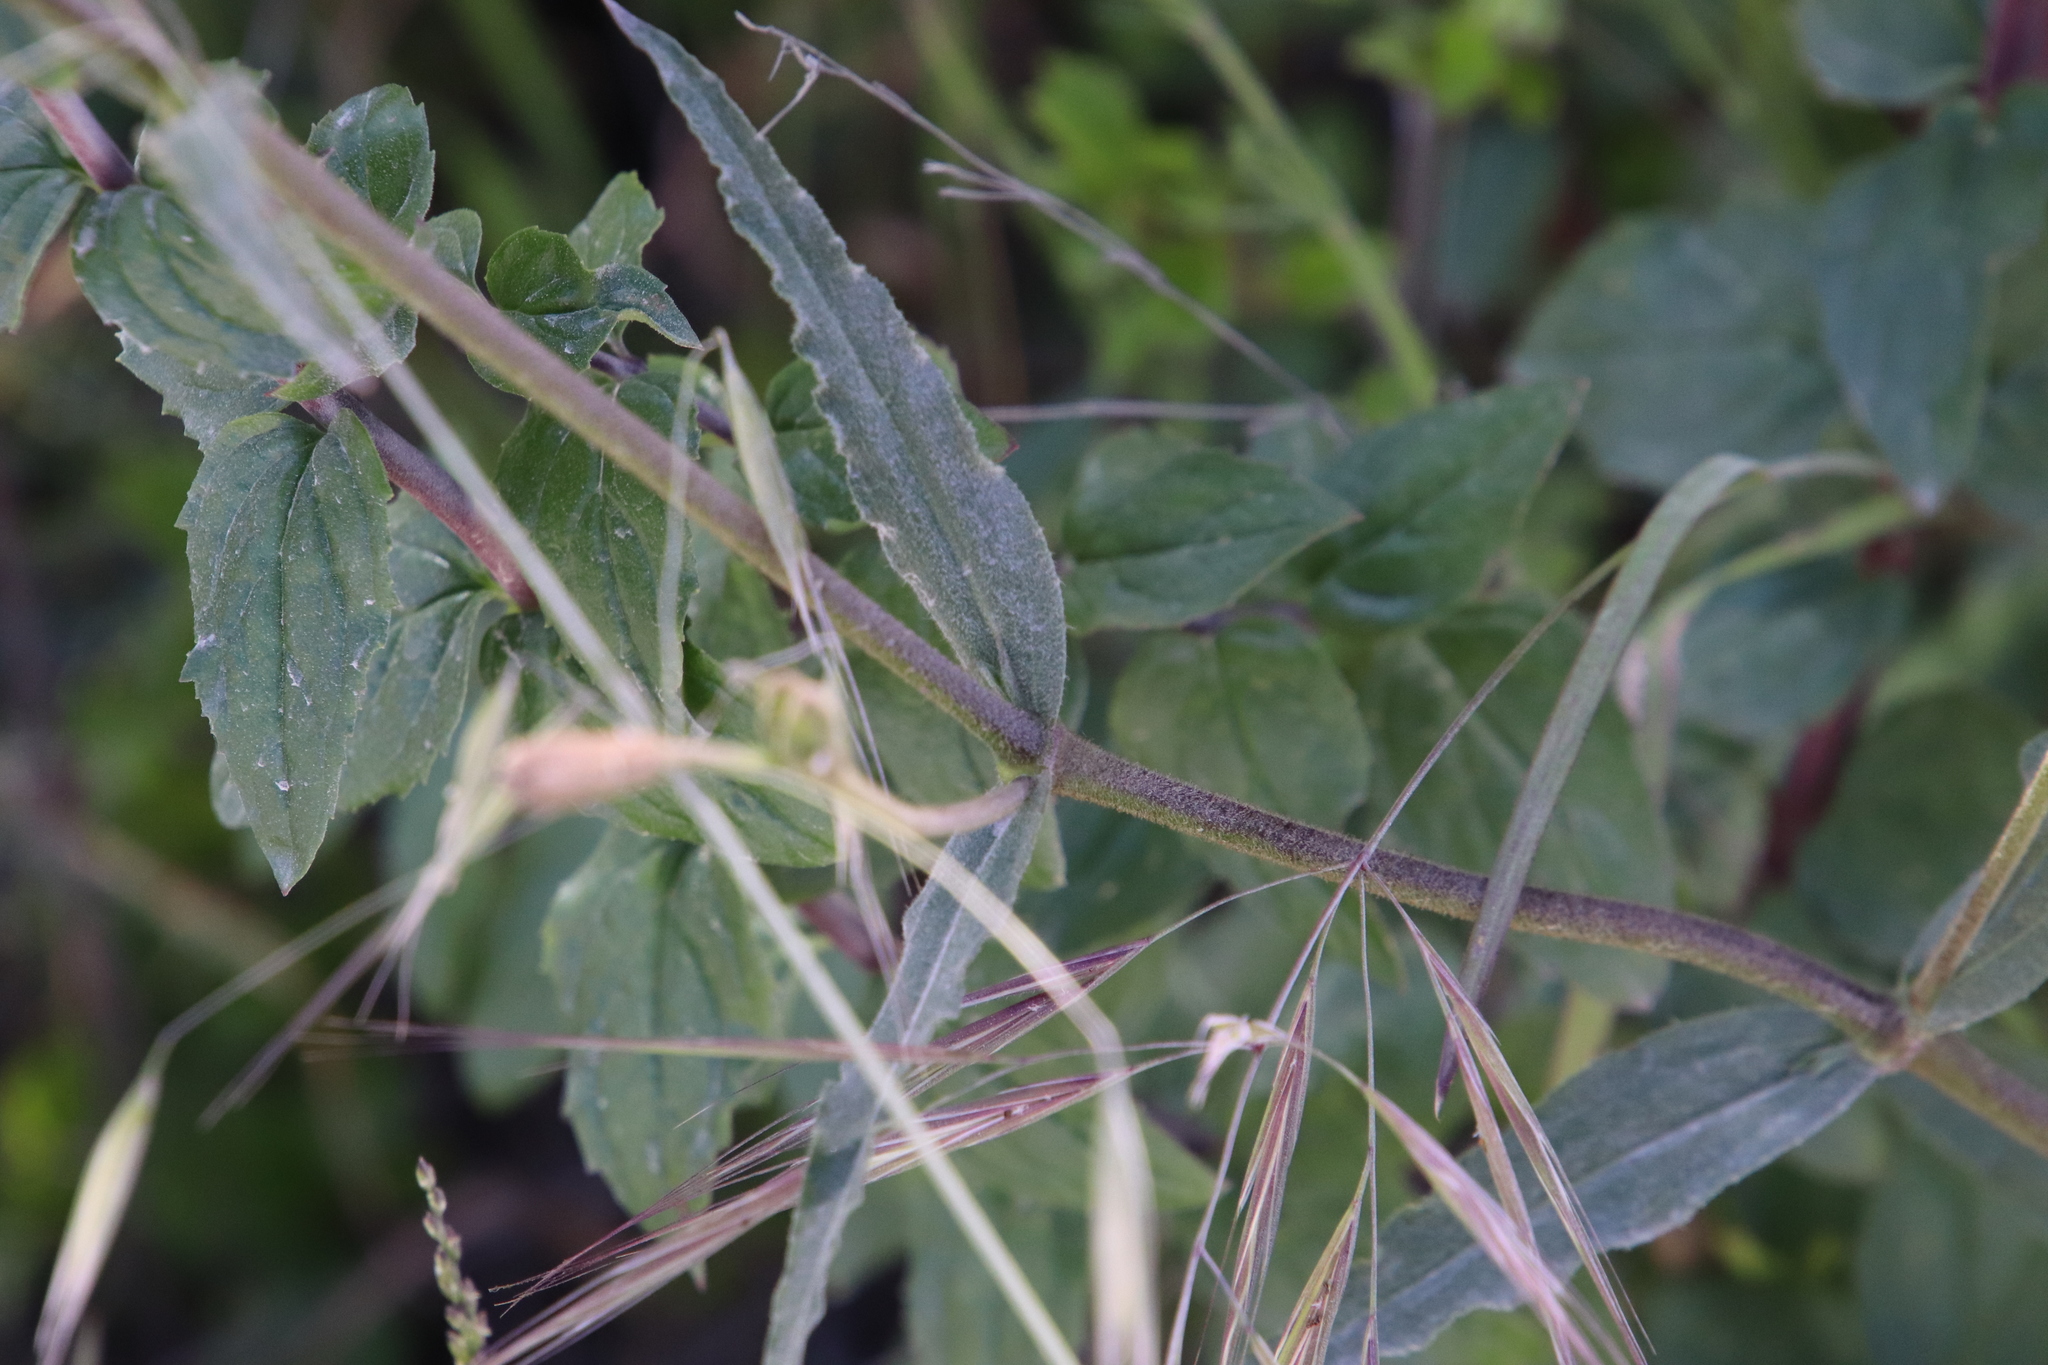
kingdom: Plantae
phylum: Tracheophyta
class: Magnoliopsida
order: Caryophyllales
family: Caryophyllaceae
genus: Silene
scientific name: Silene laciniata
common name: Indian-pink
